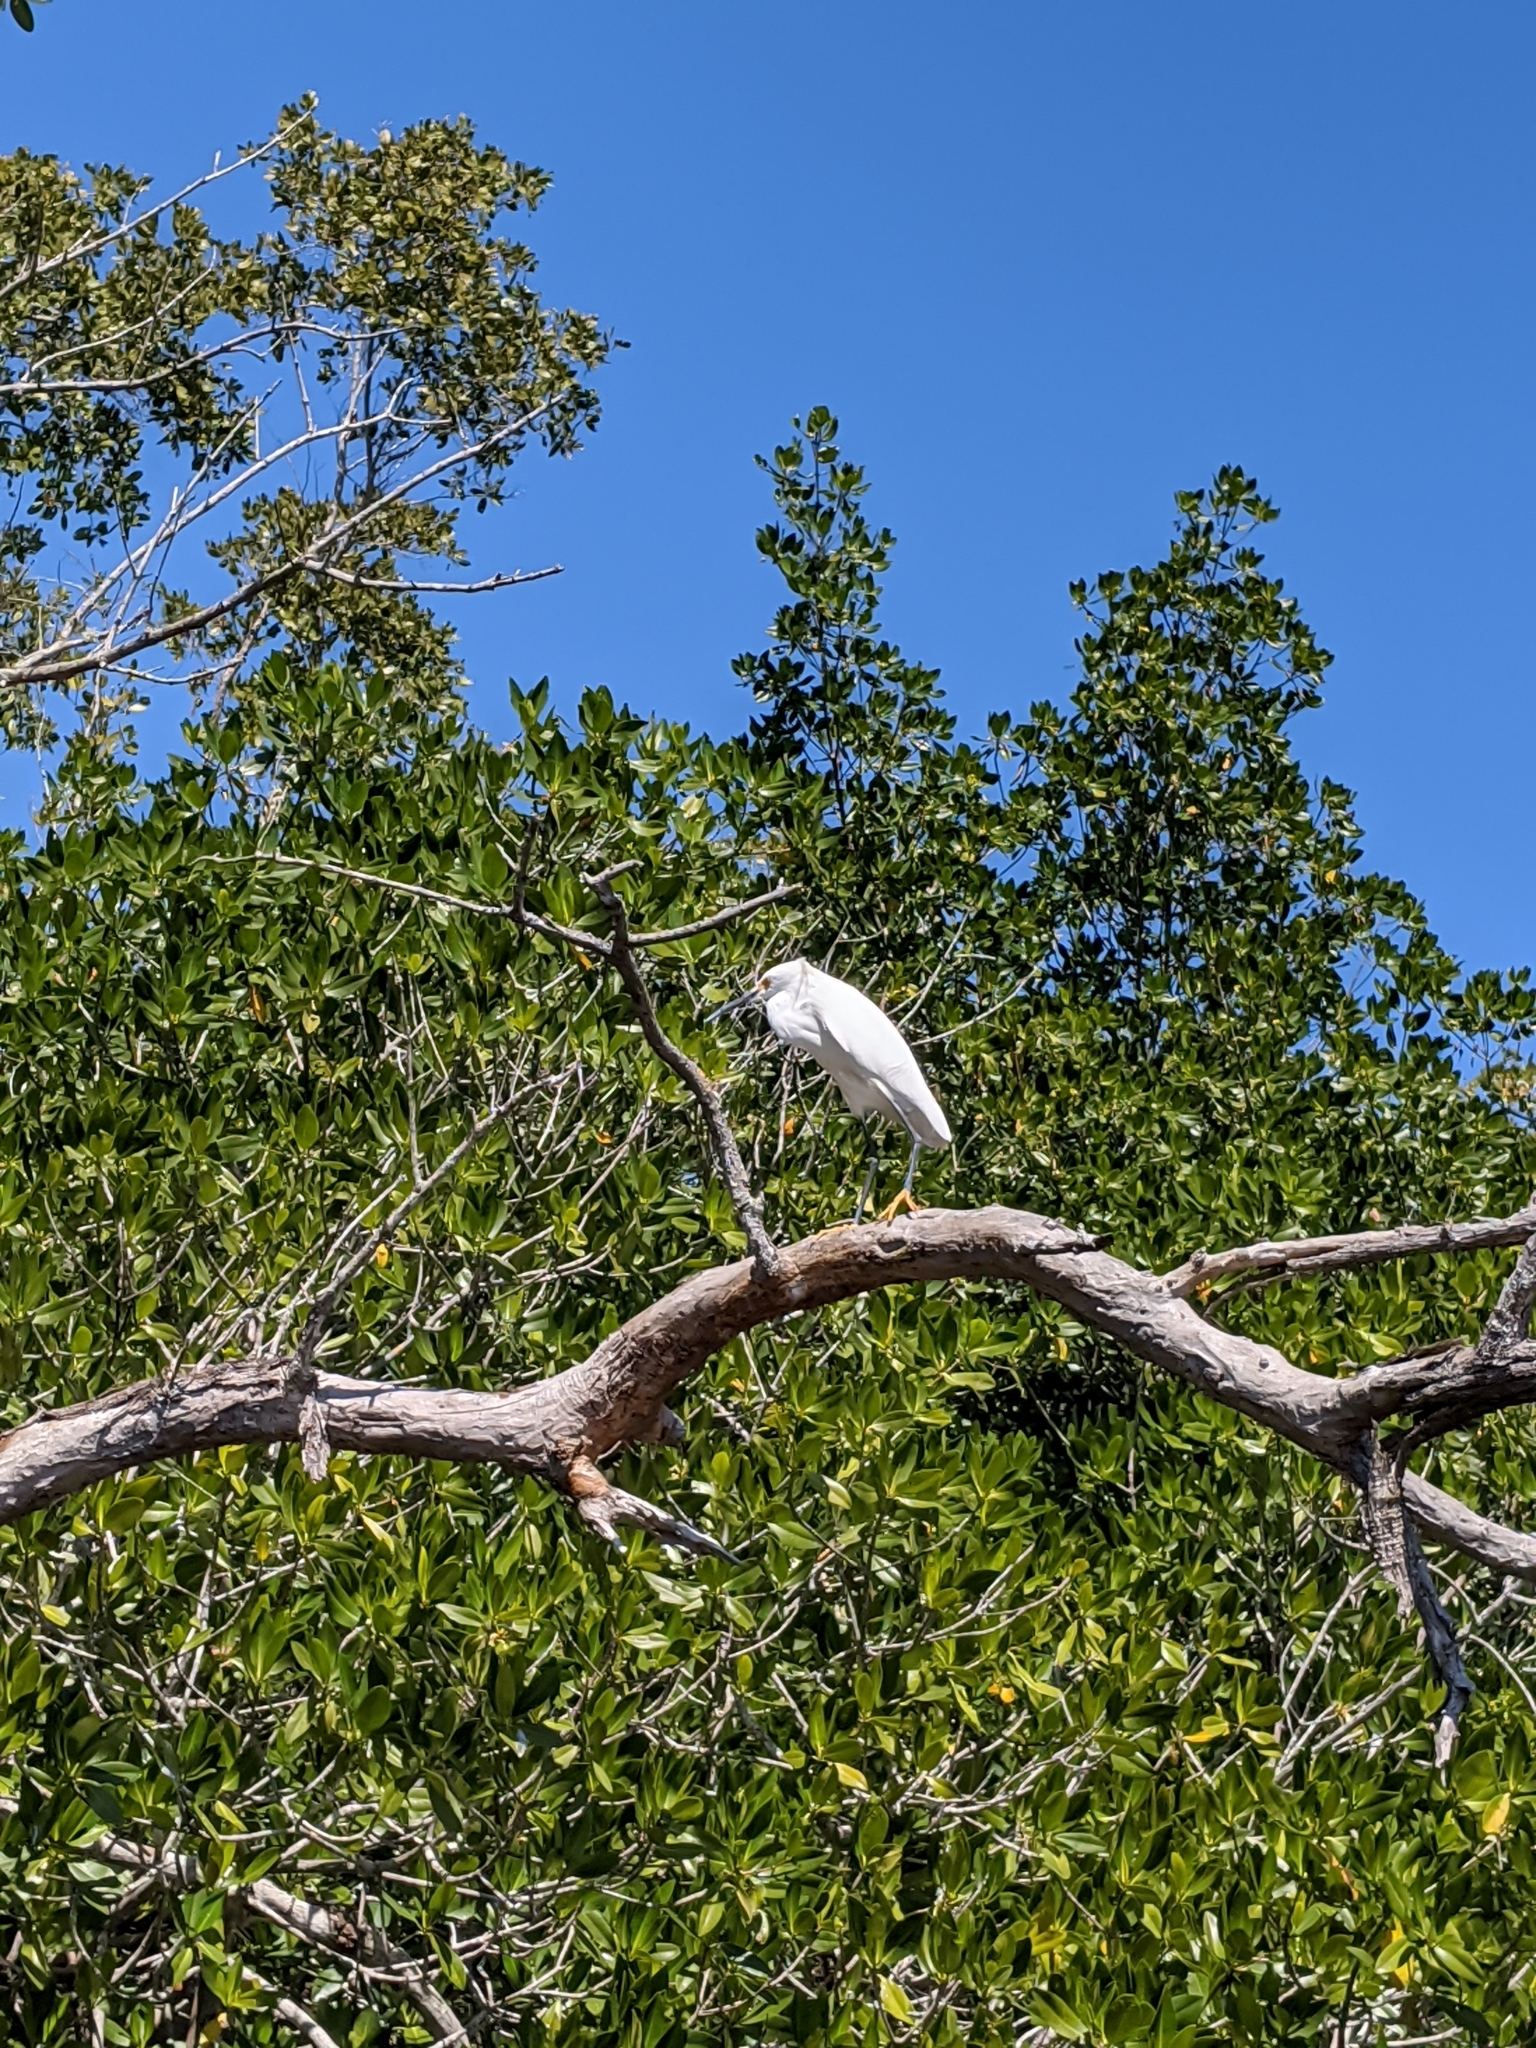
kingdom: Animalia
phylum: Chordata
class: Aves
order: Pelecaniformes
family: Ardeidae
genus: Egretta
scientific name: Egretta thula
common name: Snowy egret
